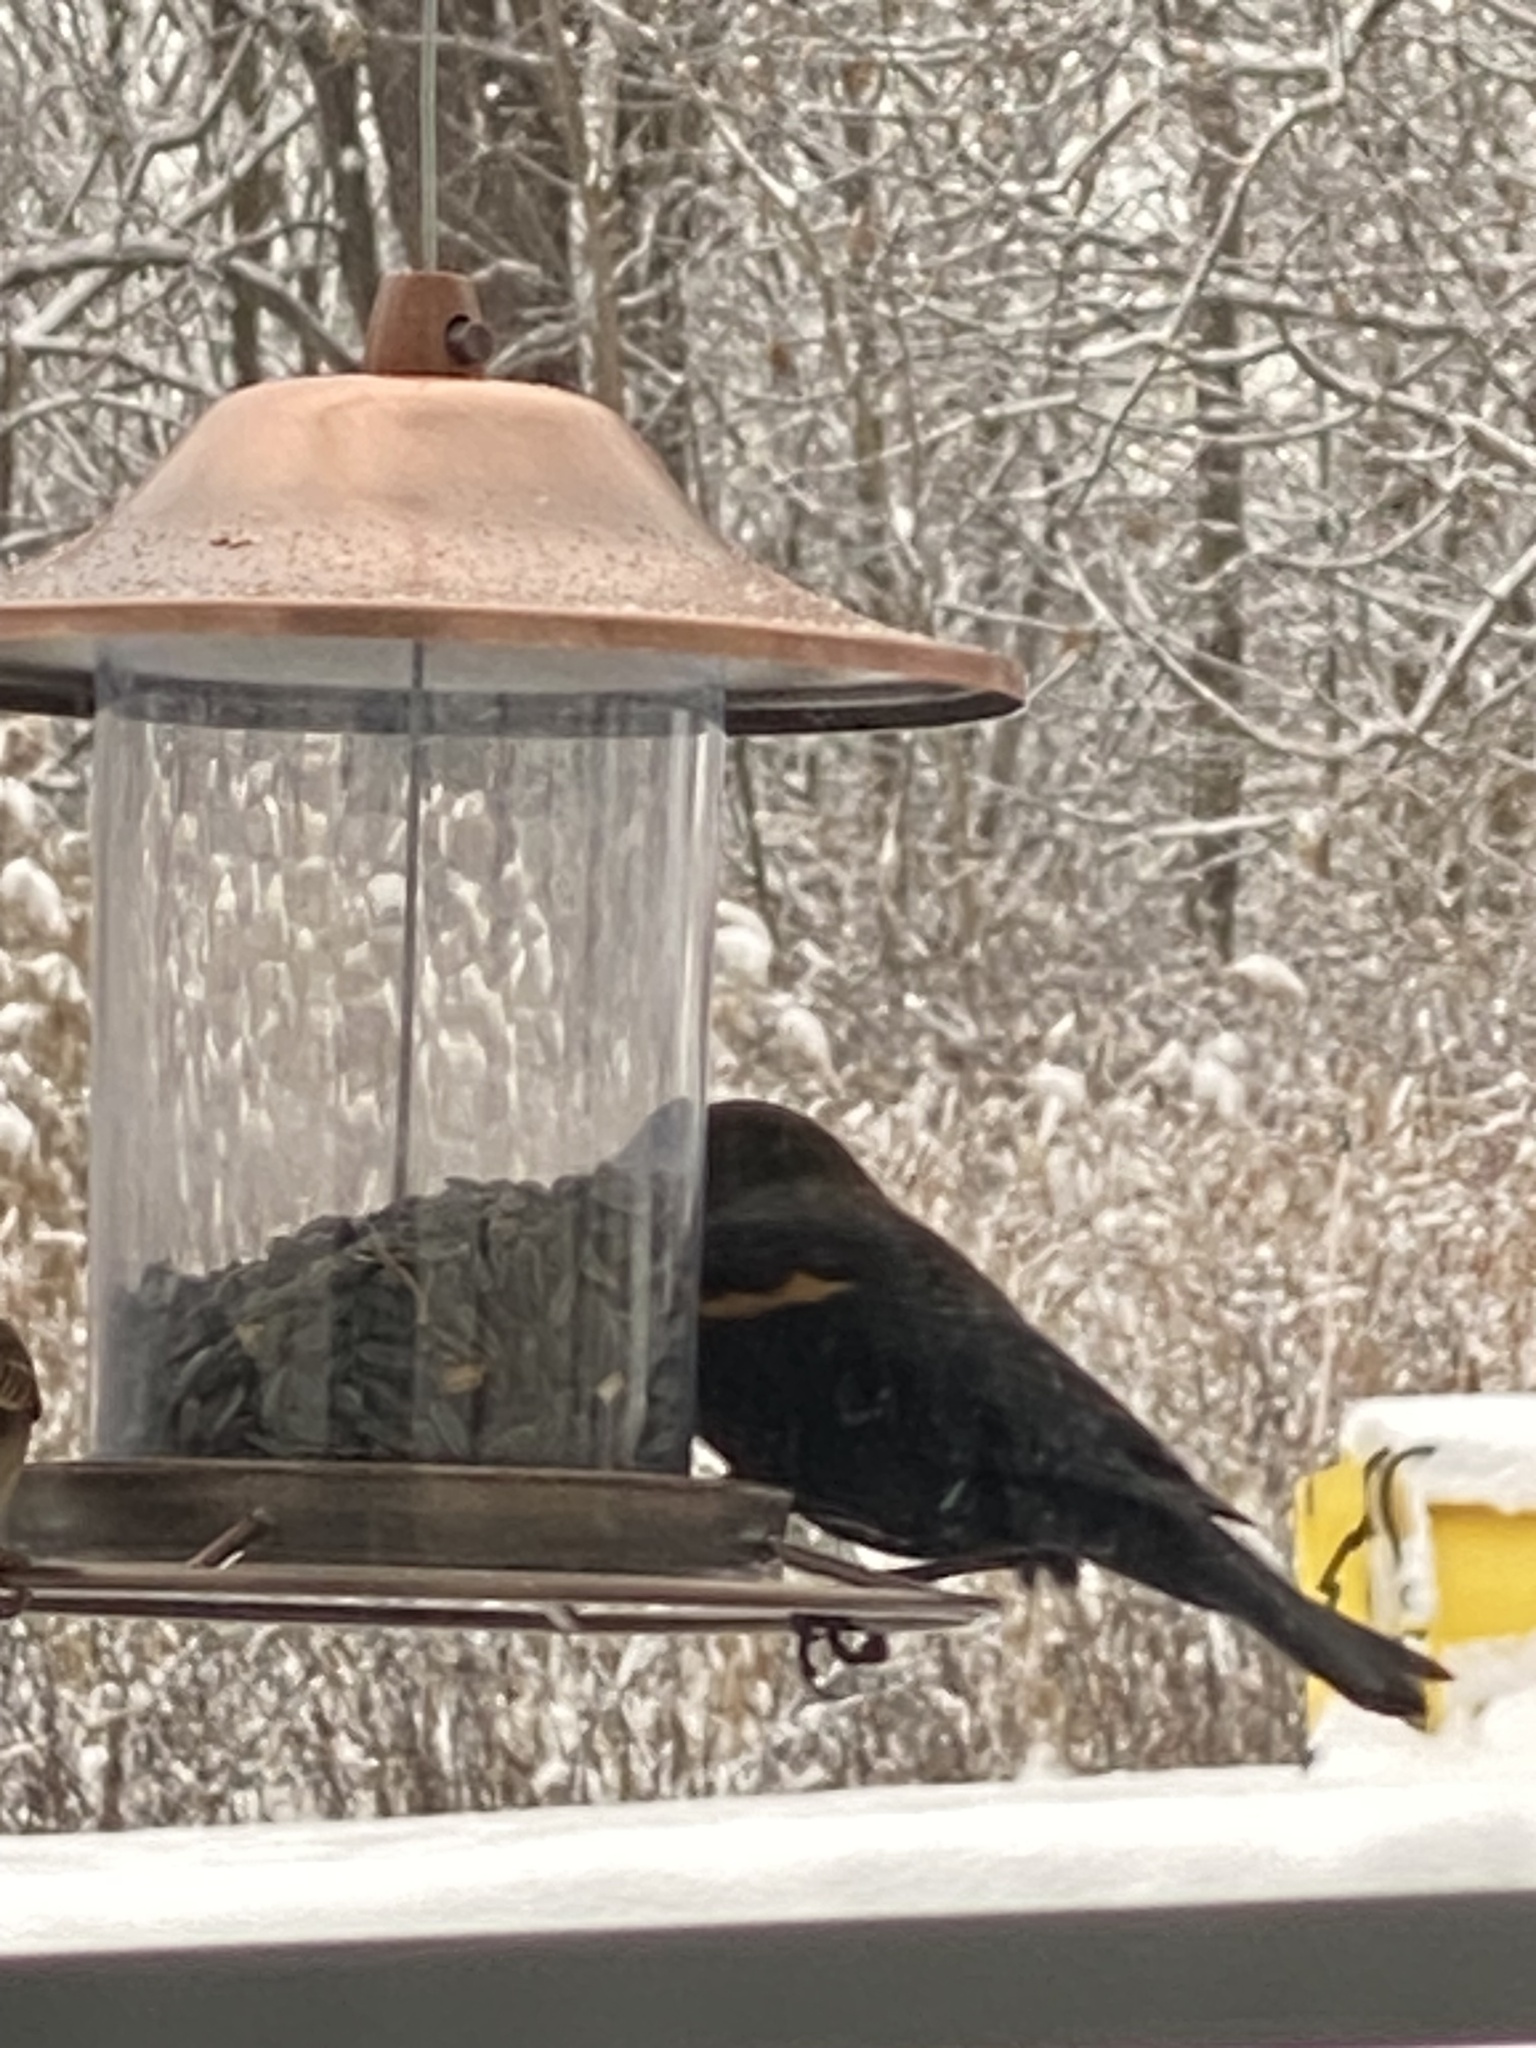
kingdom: Animalia
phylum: Chordata
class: Aves
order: Passeriformes
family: Icteridae
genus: Agelaius
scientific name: Agelaius phoeniceus
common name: Red-winged blackbird
